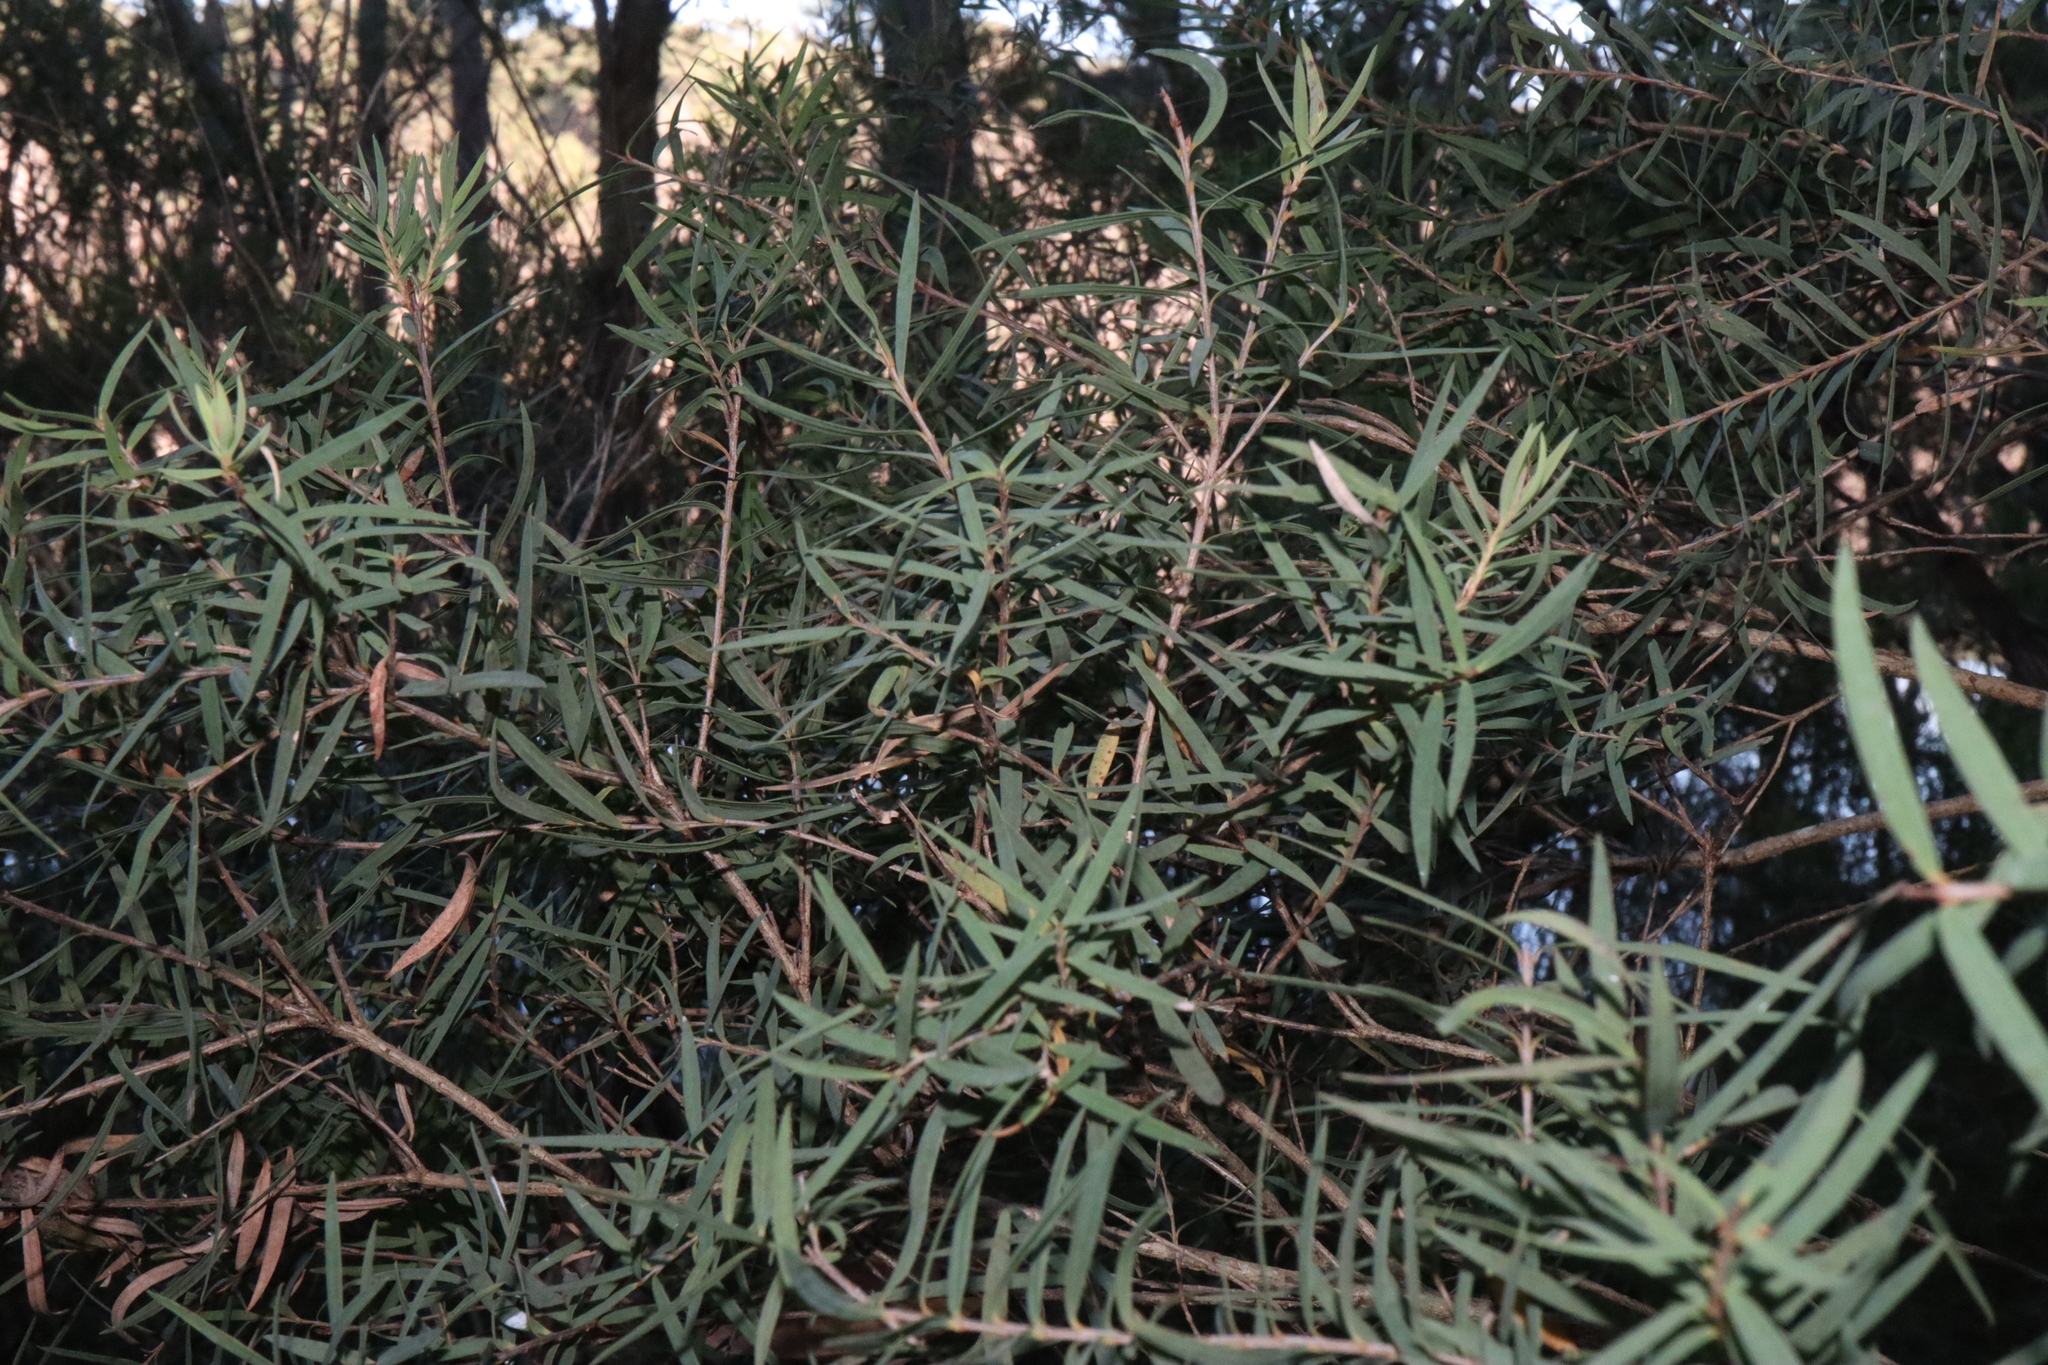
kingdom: Plantae
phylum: Tracheophyta
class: Magnoliopsida
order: Myrtales
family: Myrtaceae
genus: Melaleuca
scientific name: Melaleuca linariifolia
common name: Cajeput tree
